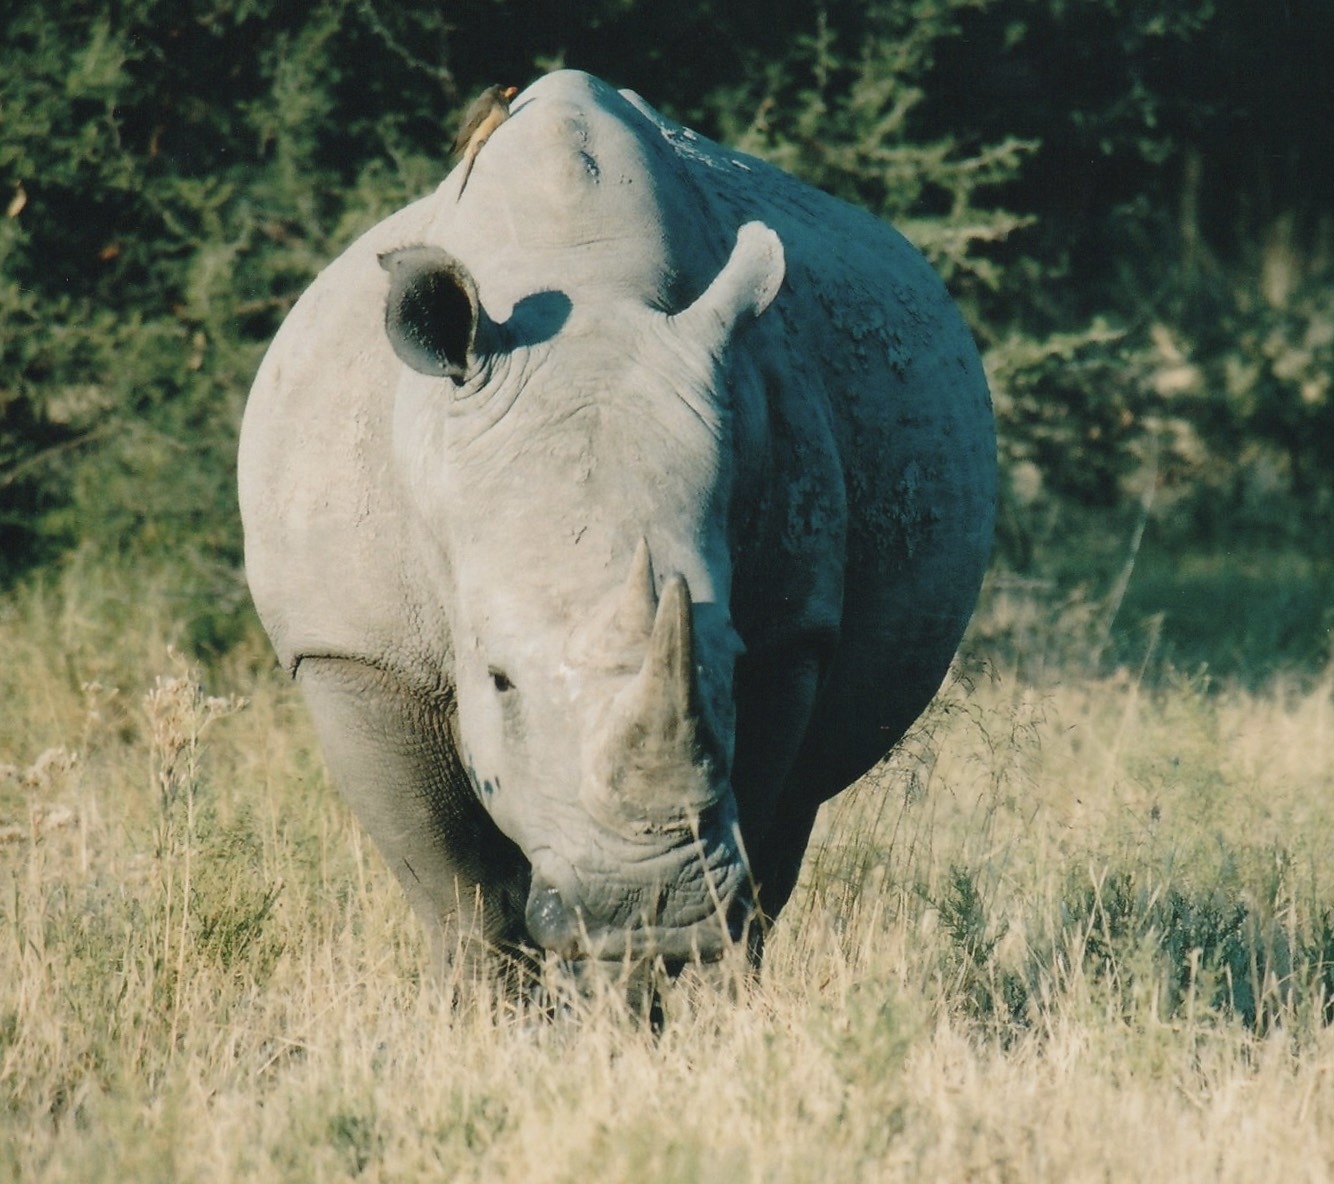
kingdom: Animalia
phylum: Chordata
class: Mammalia
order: Perissodactyla
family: Rhinocerotidae
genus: Ceratotherium
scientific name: Ceratotherium simum
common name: White rhinoceros
